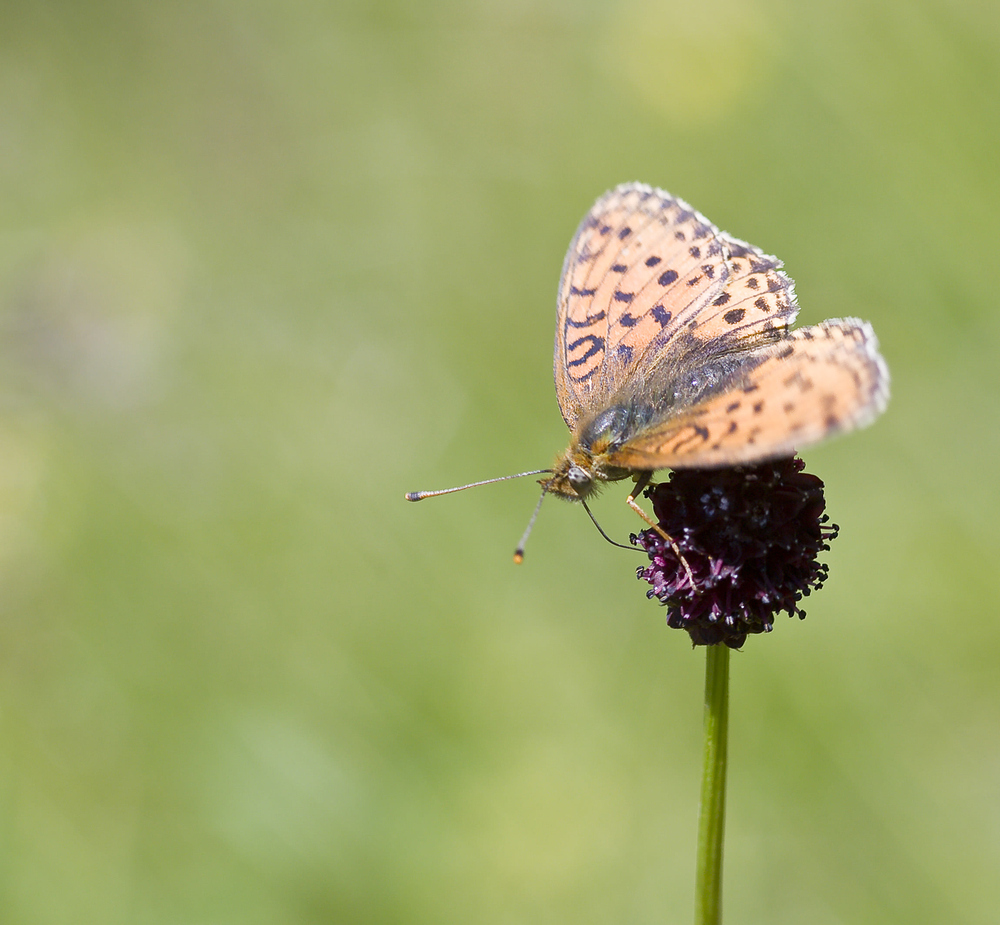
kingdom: Animalia
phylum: Arthropoda
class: Insecta
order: Lepidoptera
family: Nymphalidae
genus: Brenthis
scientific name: Brenthis ino
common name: Lesser marbled fritillary
